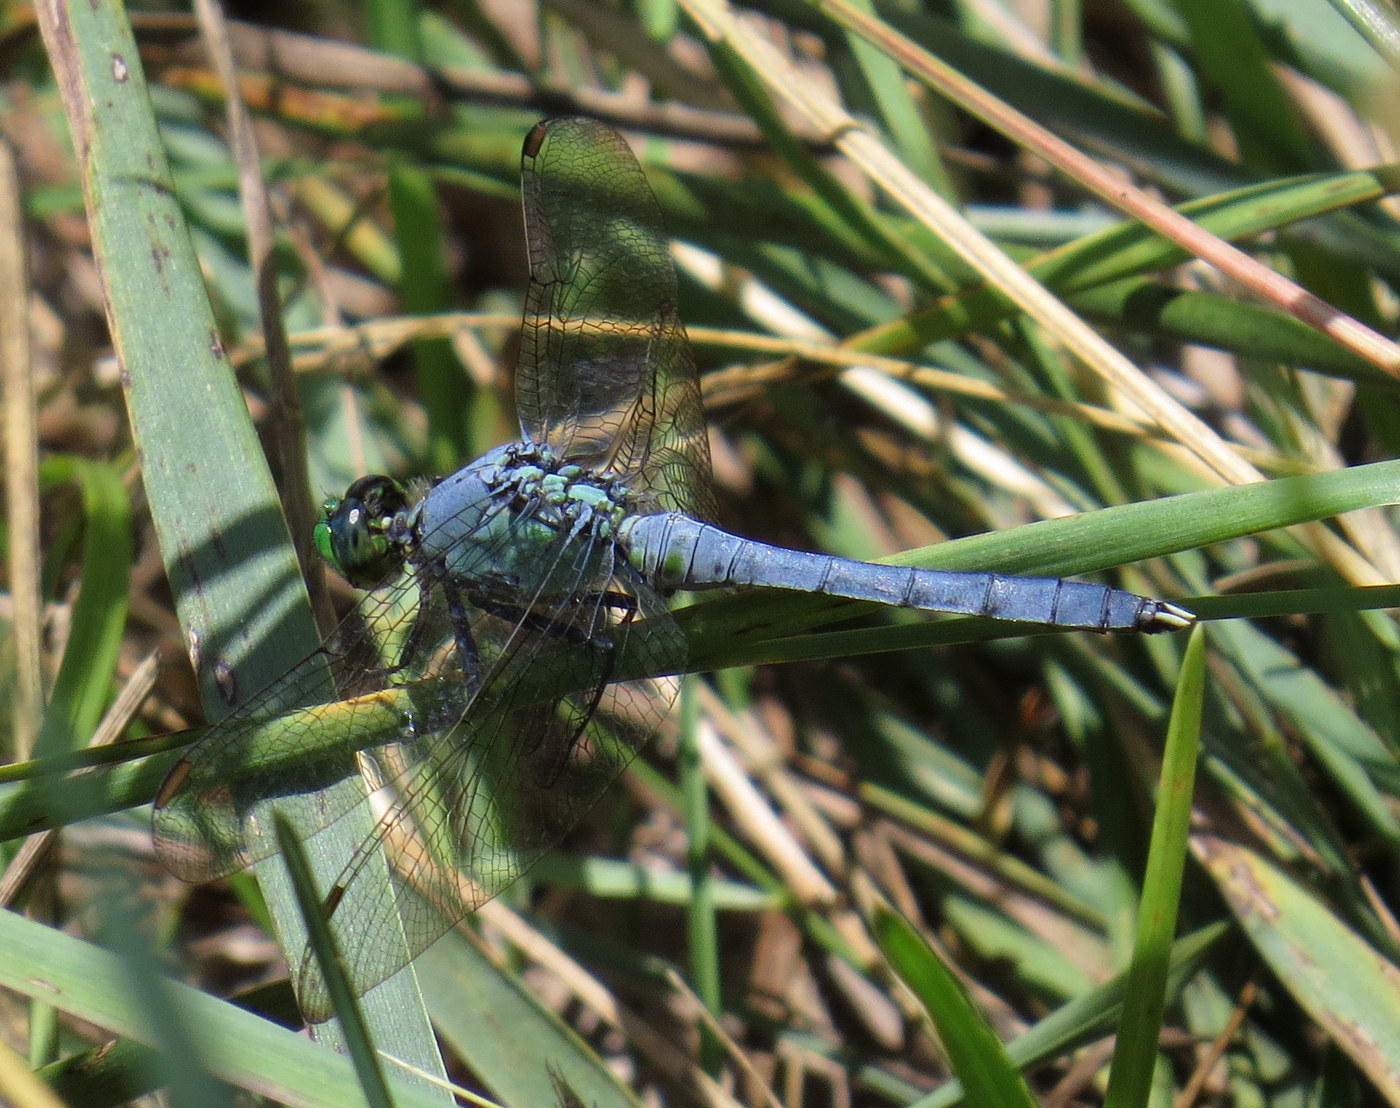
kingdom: Animalia
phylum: Arthropoda
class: Insecta
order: Odonata
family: Libellulidae
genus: Erythemis
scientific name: Erythemis simplicicollis
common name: Eastern pondhawk
